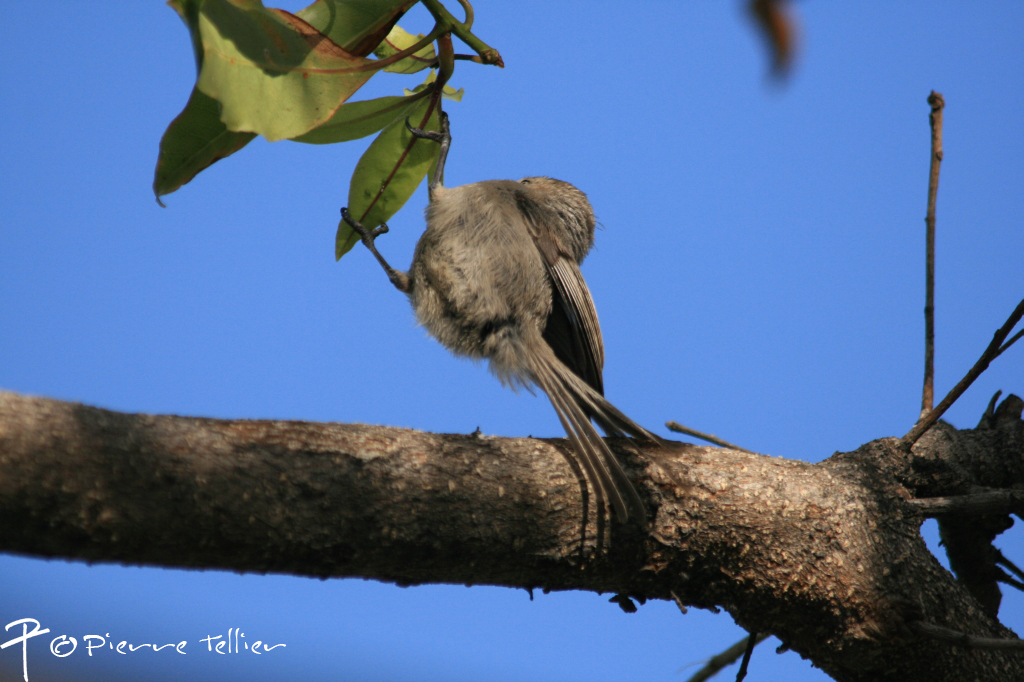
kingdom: Animalia
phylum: Chordata
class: Aves
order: Passeriformes
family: Aegithalidae
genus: Psaltriparus
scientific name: Psaltriparus minimus
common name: American bushtit
